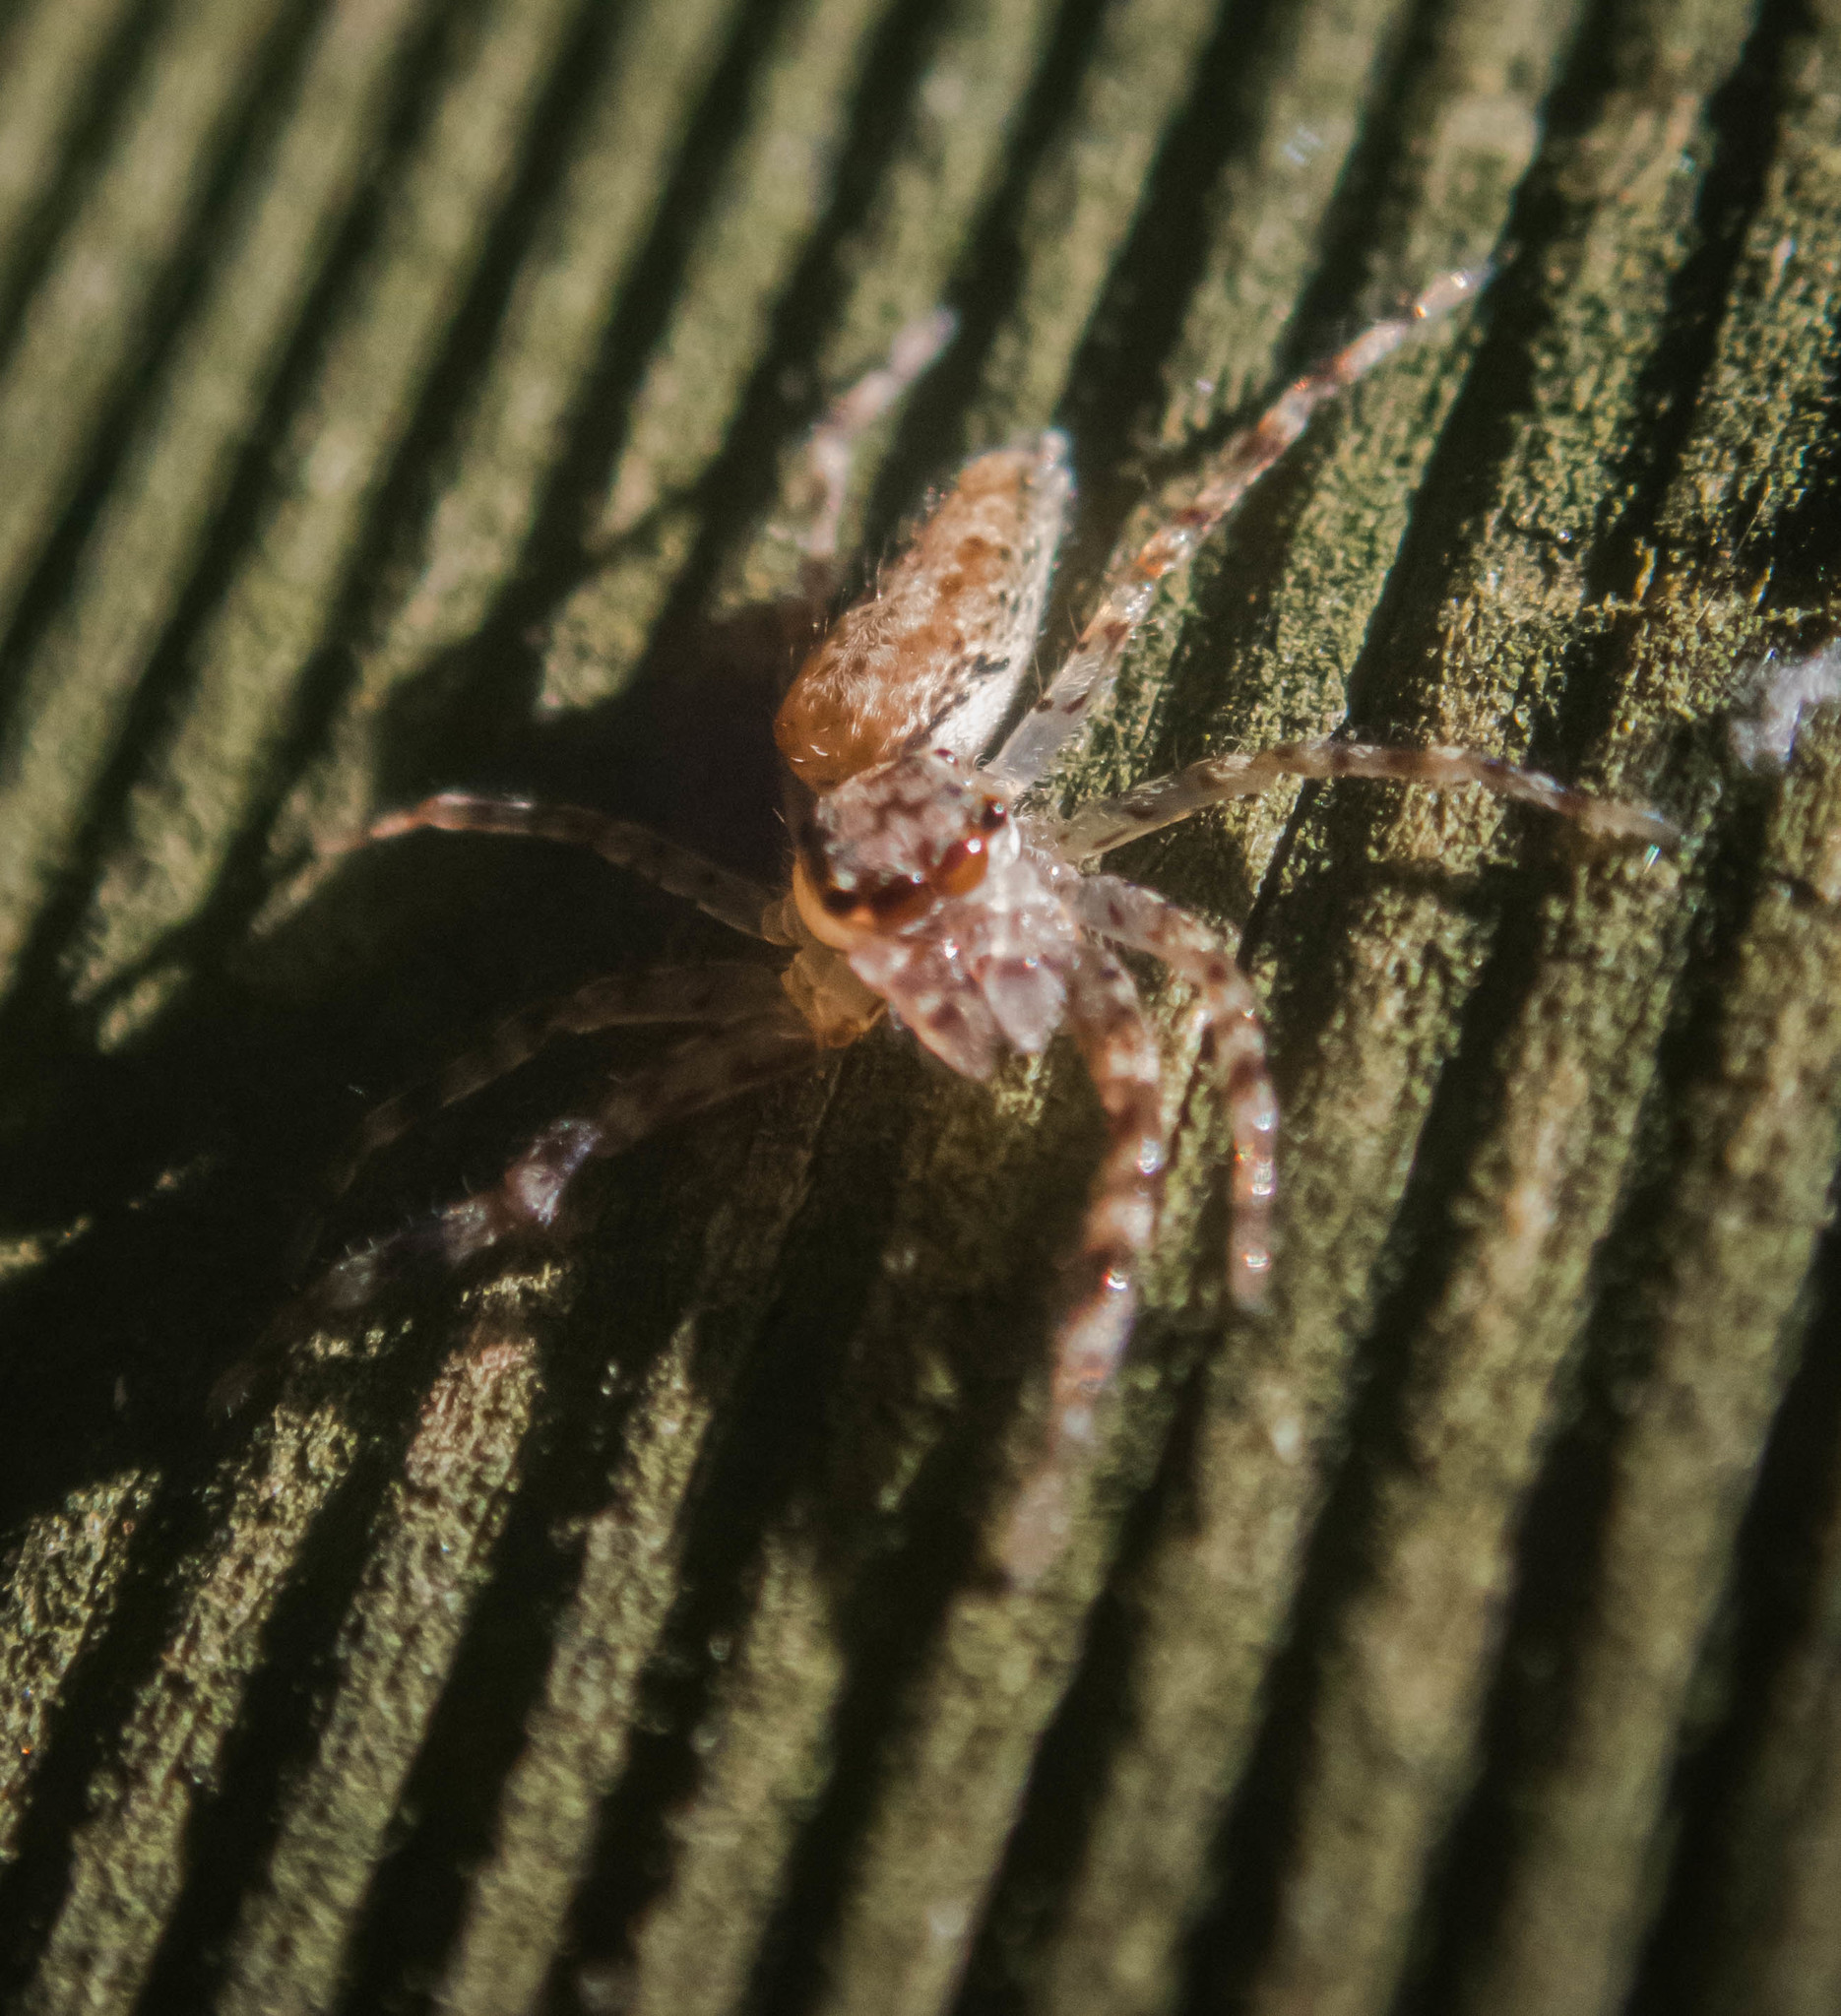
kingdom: Animalia
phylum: Arthropoda
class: Arachnida
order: Araneae
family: Salticidae
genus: Helpis
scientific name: Helpis minitabunda
